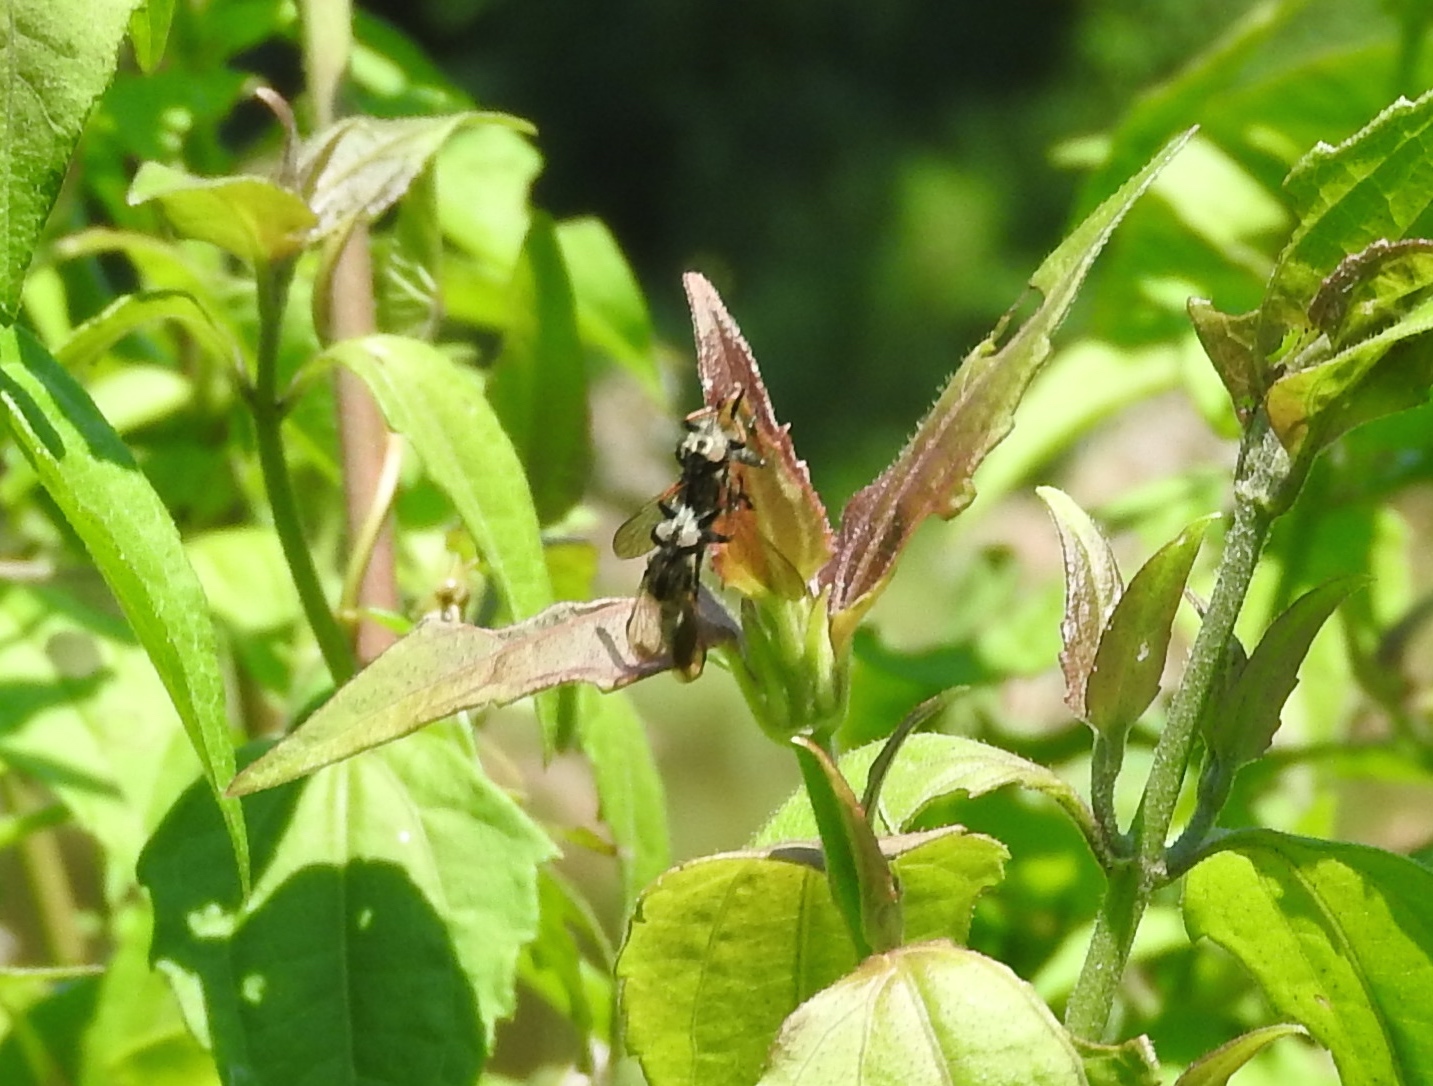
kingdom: Animalia
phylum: Arthropoda
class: Insecta
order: Diptera
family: Asilidae
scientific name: Asilidae
